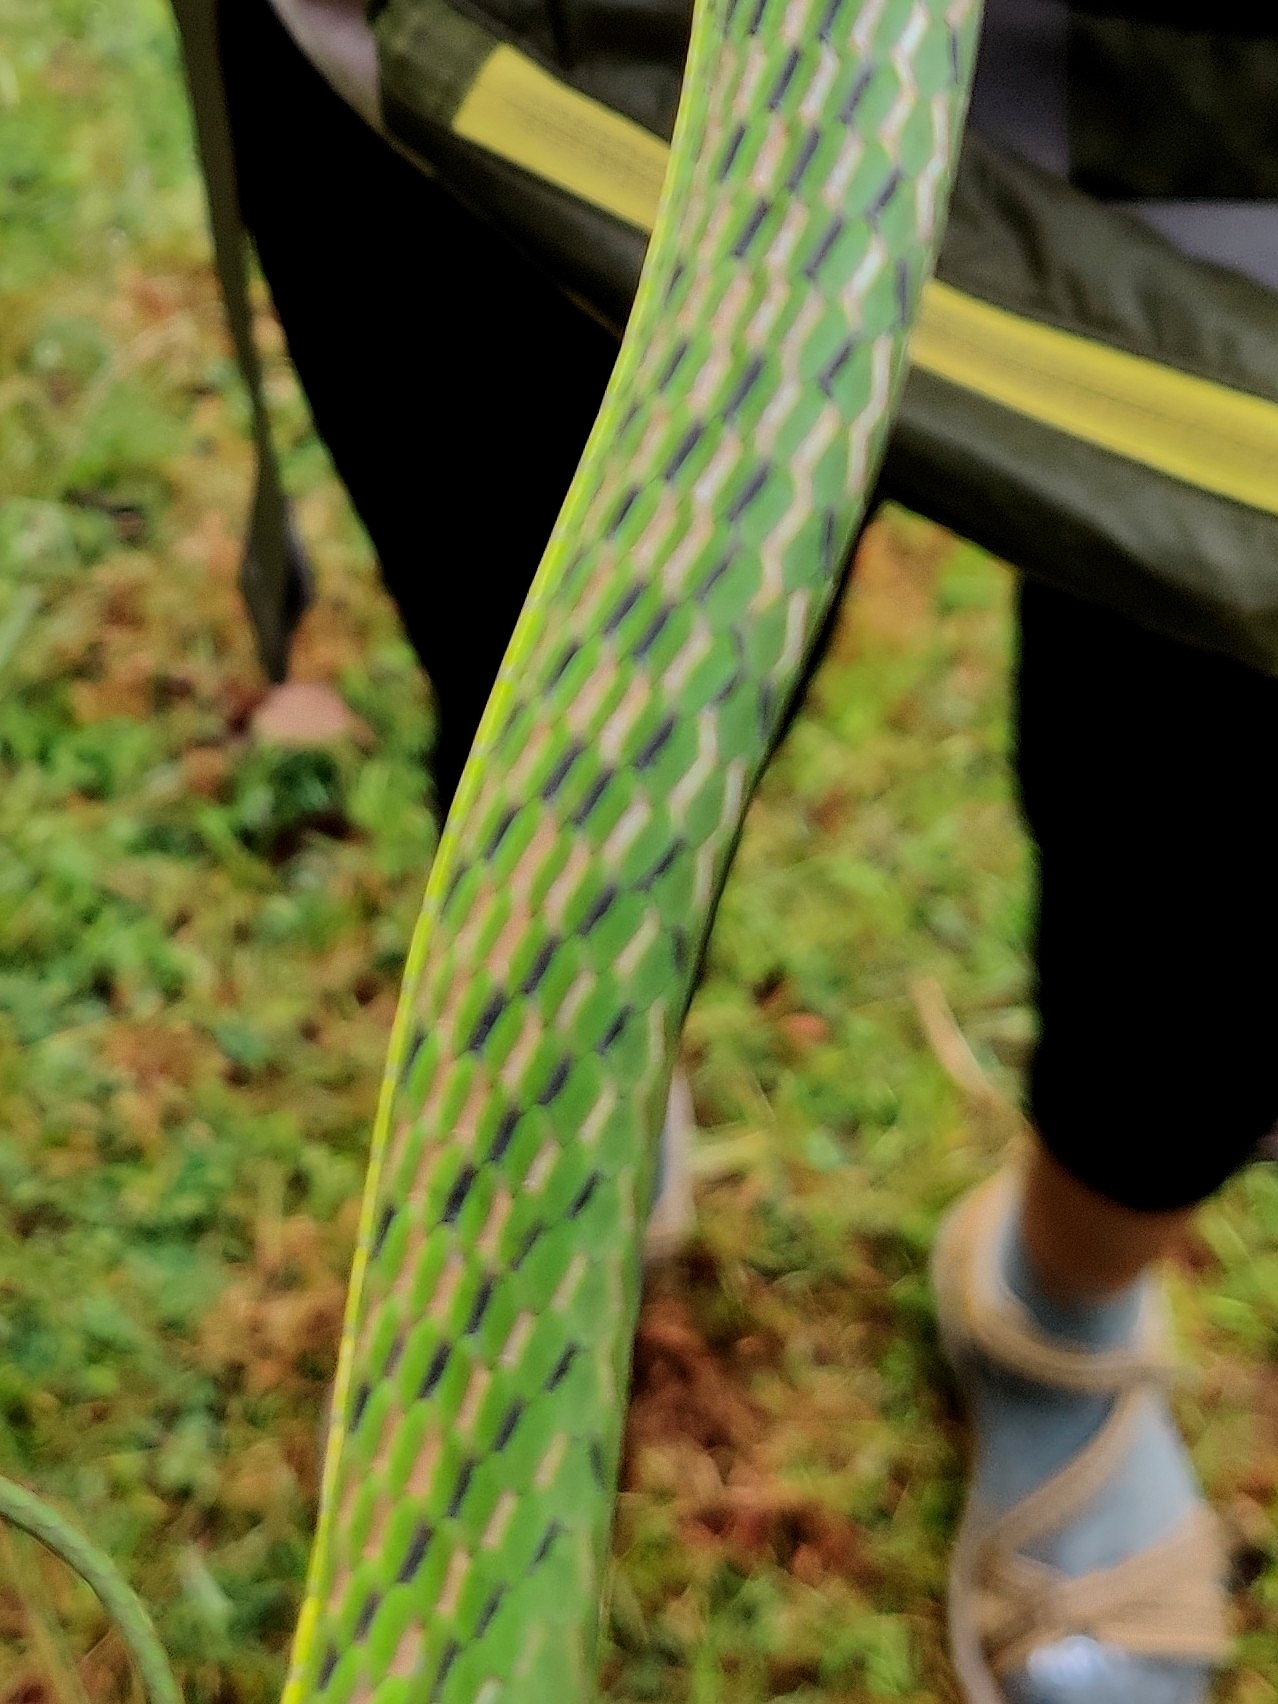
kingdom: Animalia
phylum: Chordata
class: Squamata
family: Colubridae
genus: Ahaetulla
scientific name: Ahaetulla borealis
